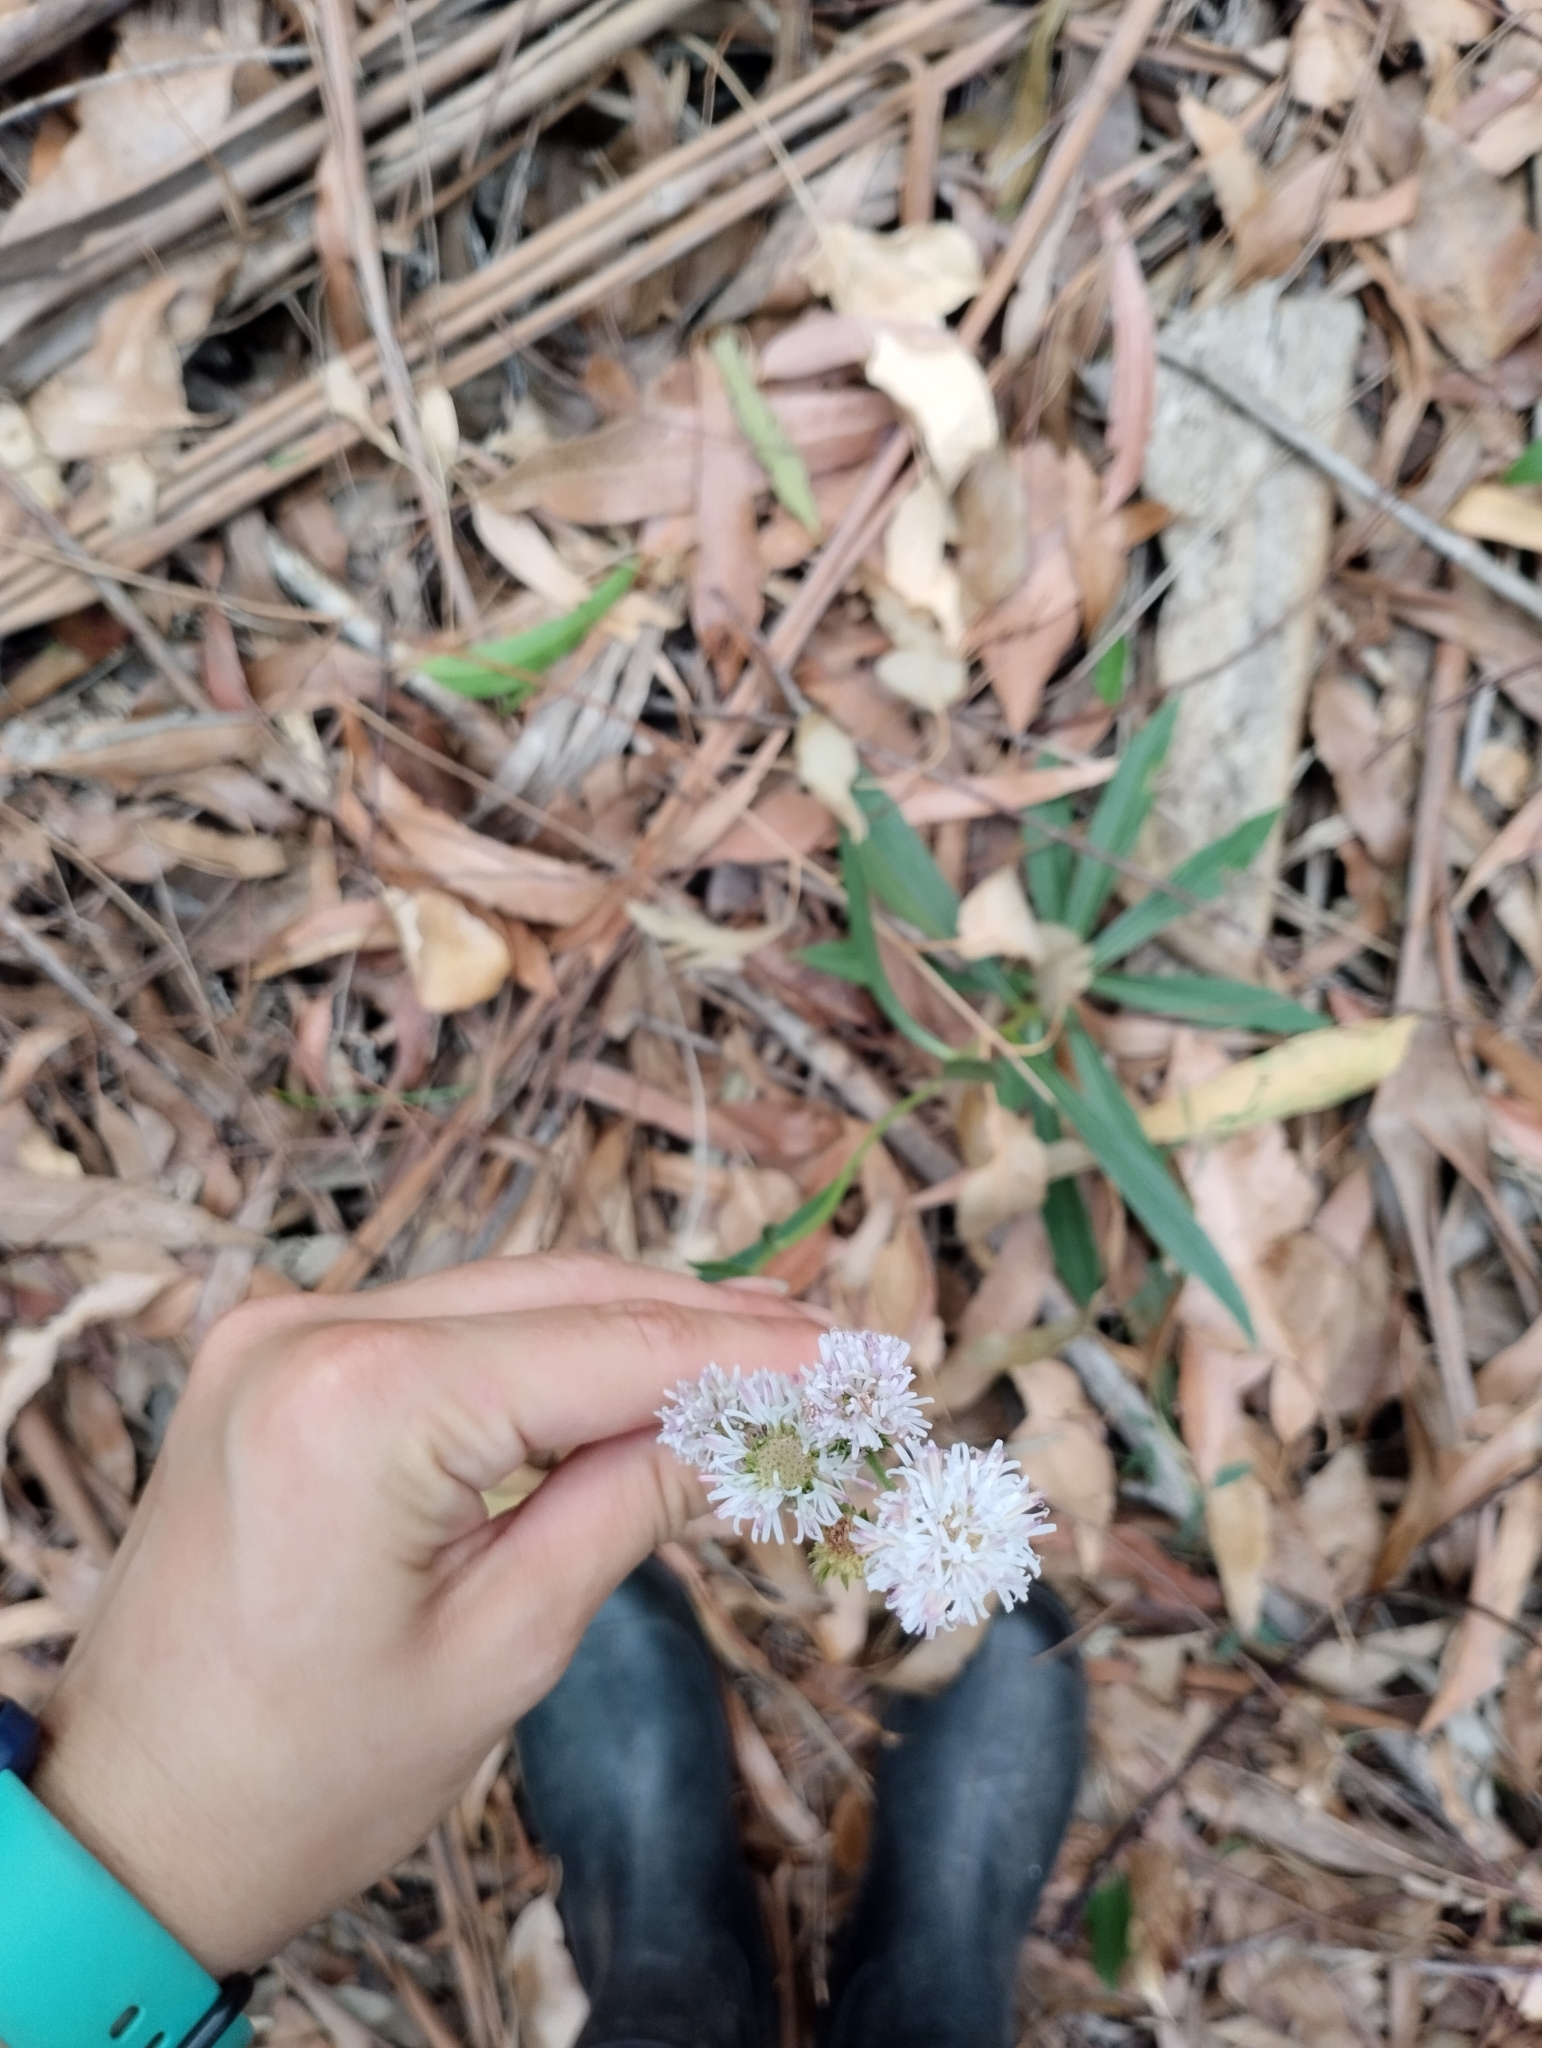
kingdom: Plantae
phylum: Tracheophyta
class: Magnoliopsida
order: Asterales
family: Asteraceae
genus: Chrysolaena
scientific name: Chrysolaena flexuosa
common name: Zig-zag vernonia
